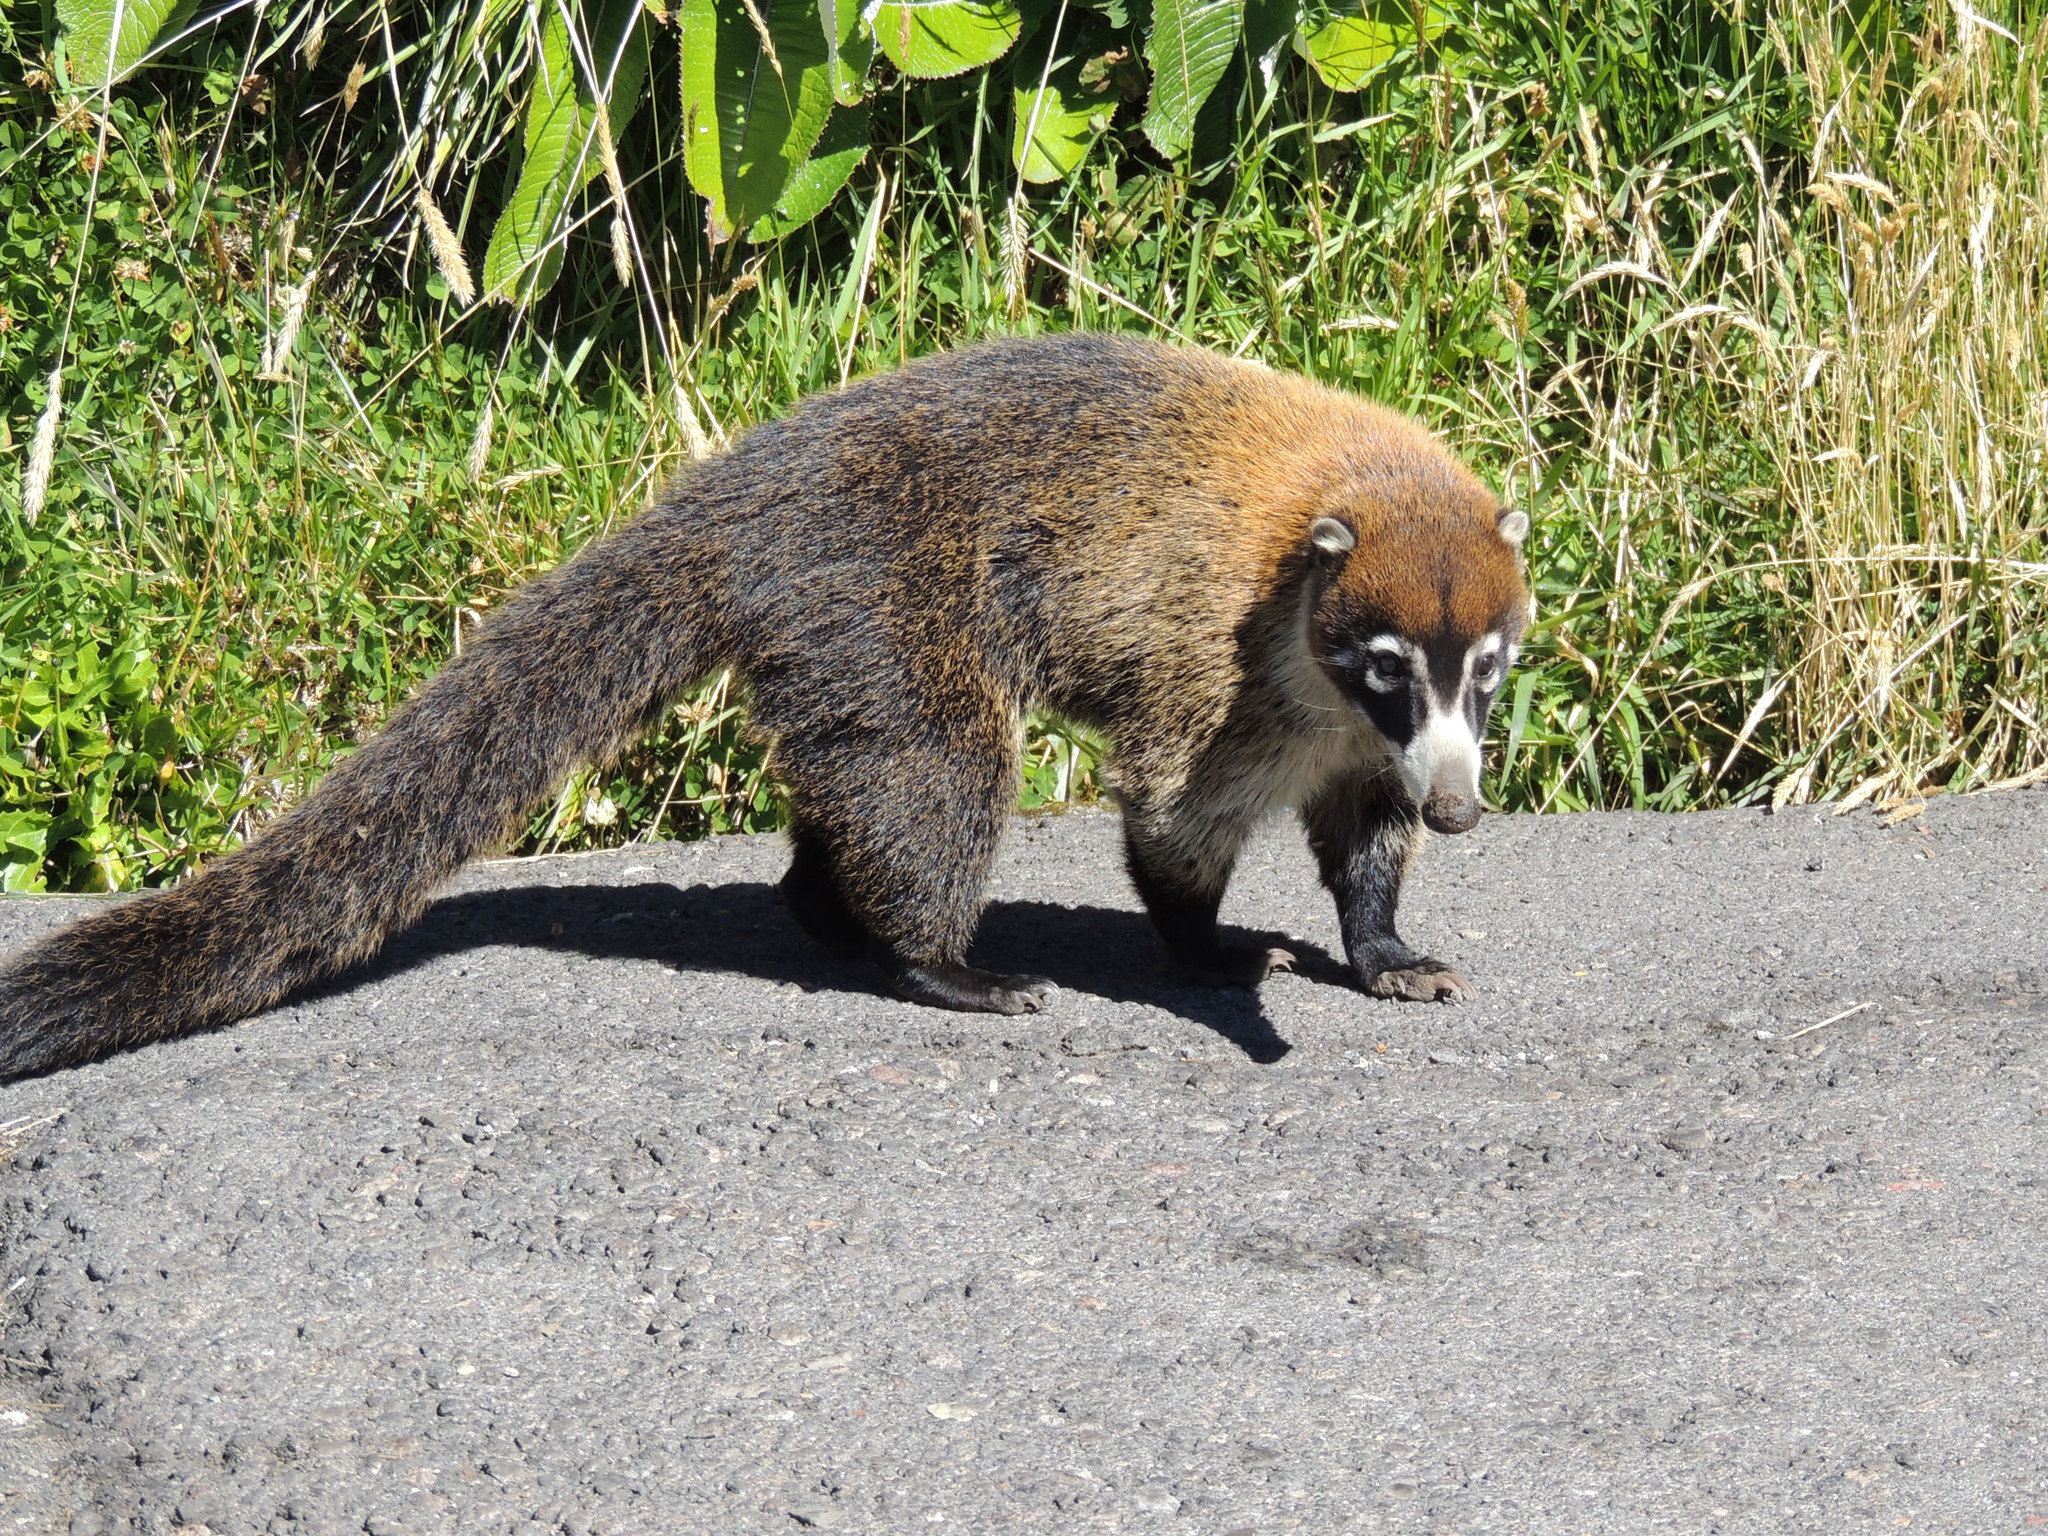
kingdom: Animalia
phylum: Chordata
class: Mammalia
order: Carnivora
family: Procyonidae
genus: Nasua
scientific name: Nasua narica
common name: White-nosed coati
